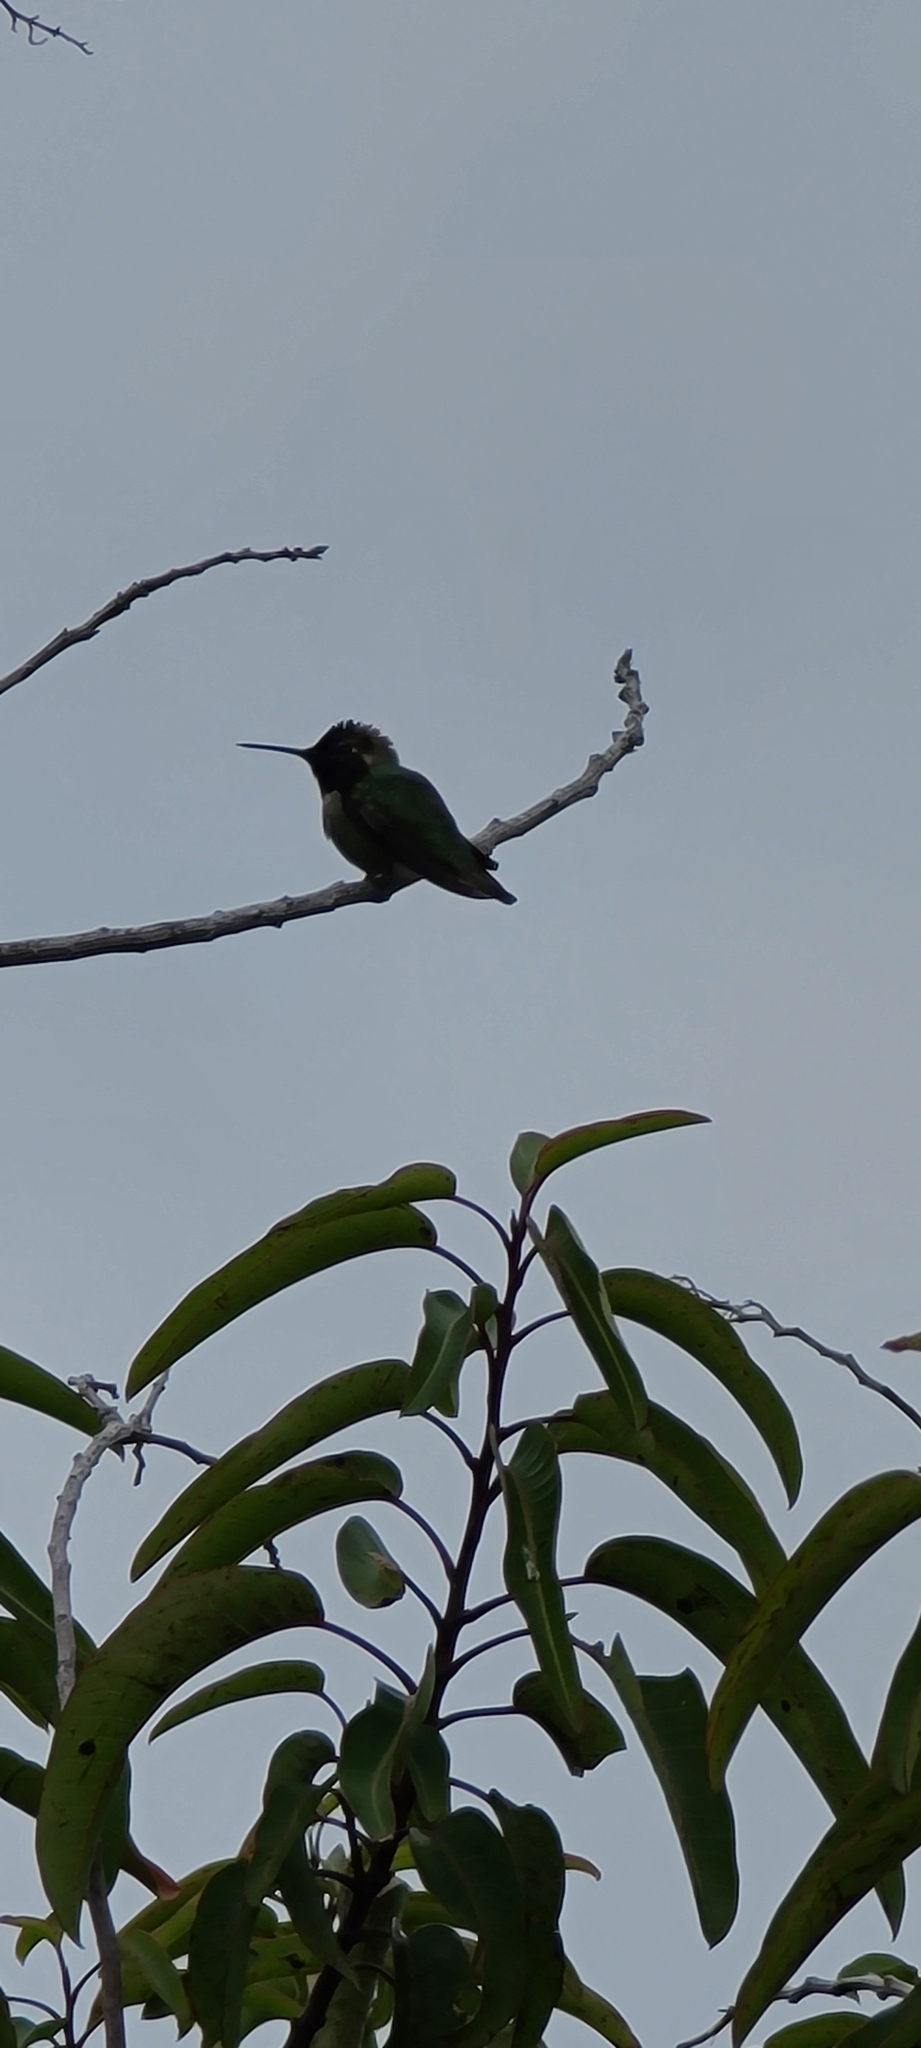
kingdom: Animalia
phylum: Chordata
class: Aves
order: Apodiformes
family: Trochilidae
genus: Calypte
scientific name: Calypte anna
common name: Anna's hummingbird
